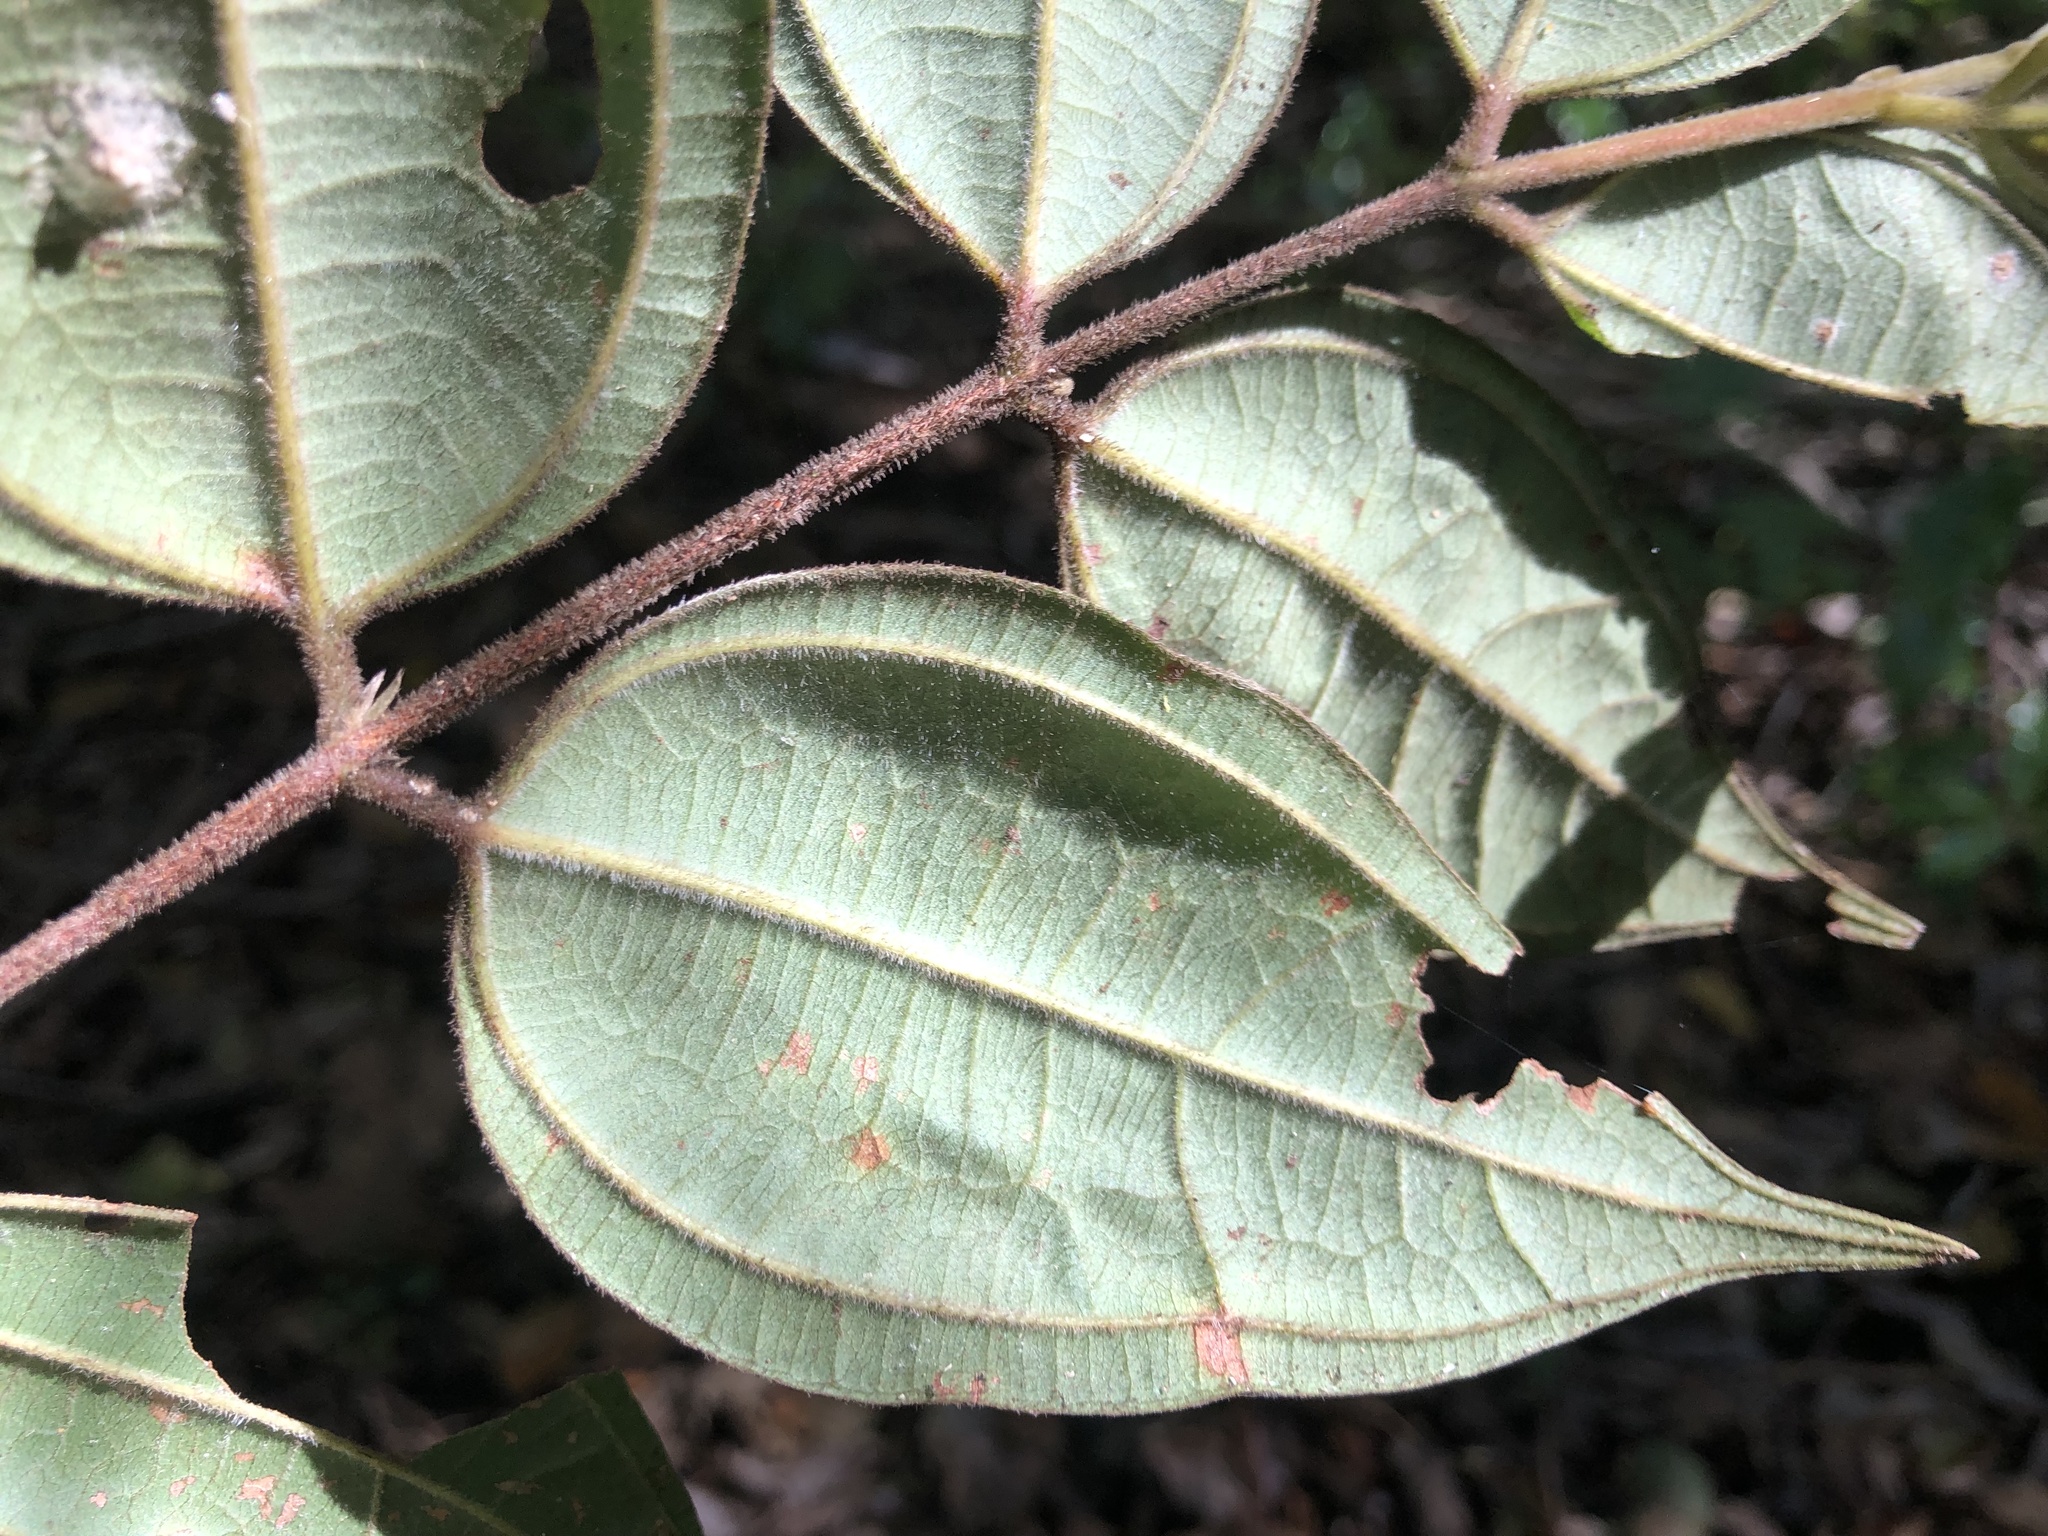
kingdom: Plantae
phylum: Tracheophyta
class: Magnoliopsida
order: Myrtales
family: Myrtaceae
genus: Rhodamnia
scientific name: Rhodamnia rubescens
